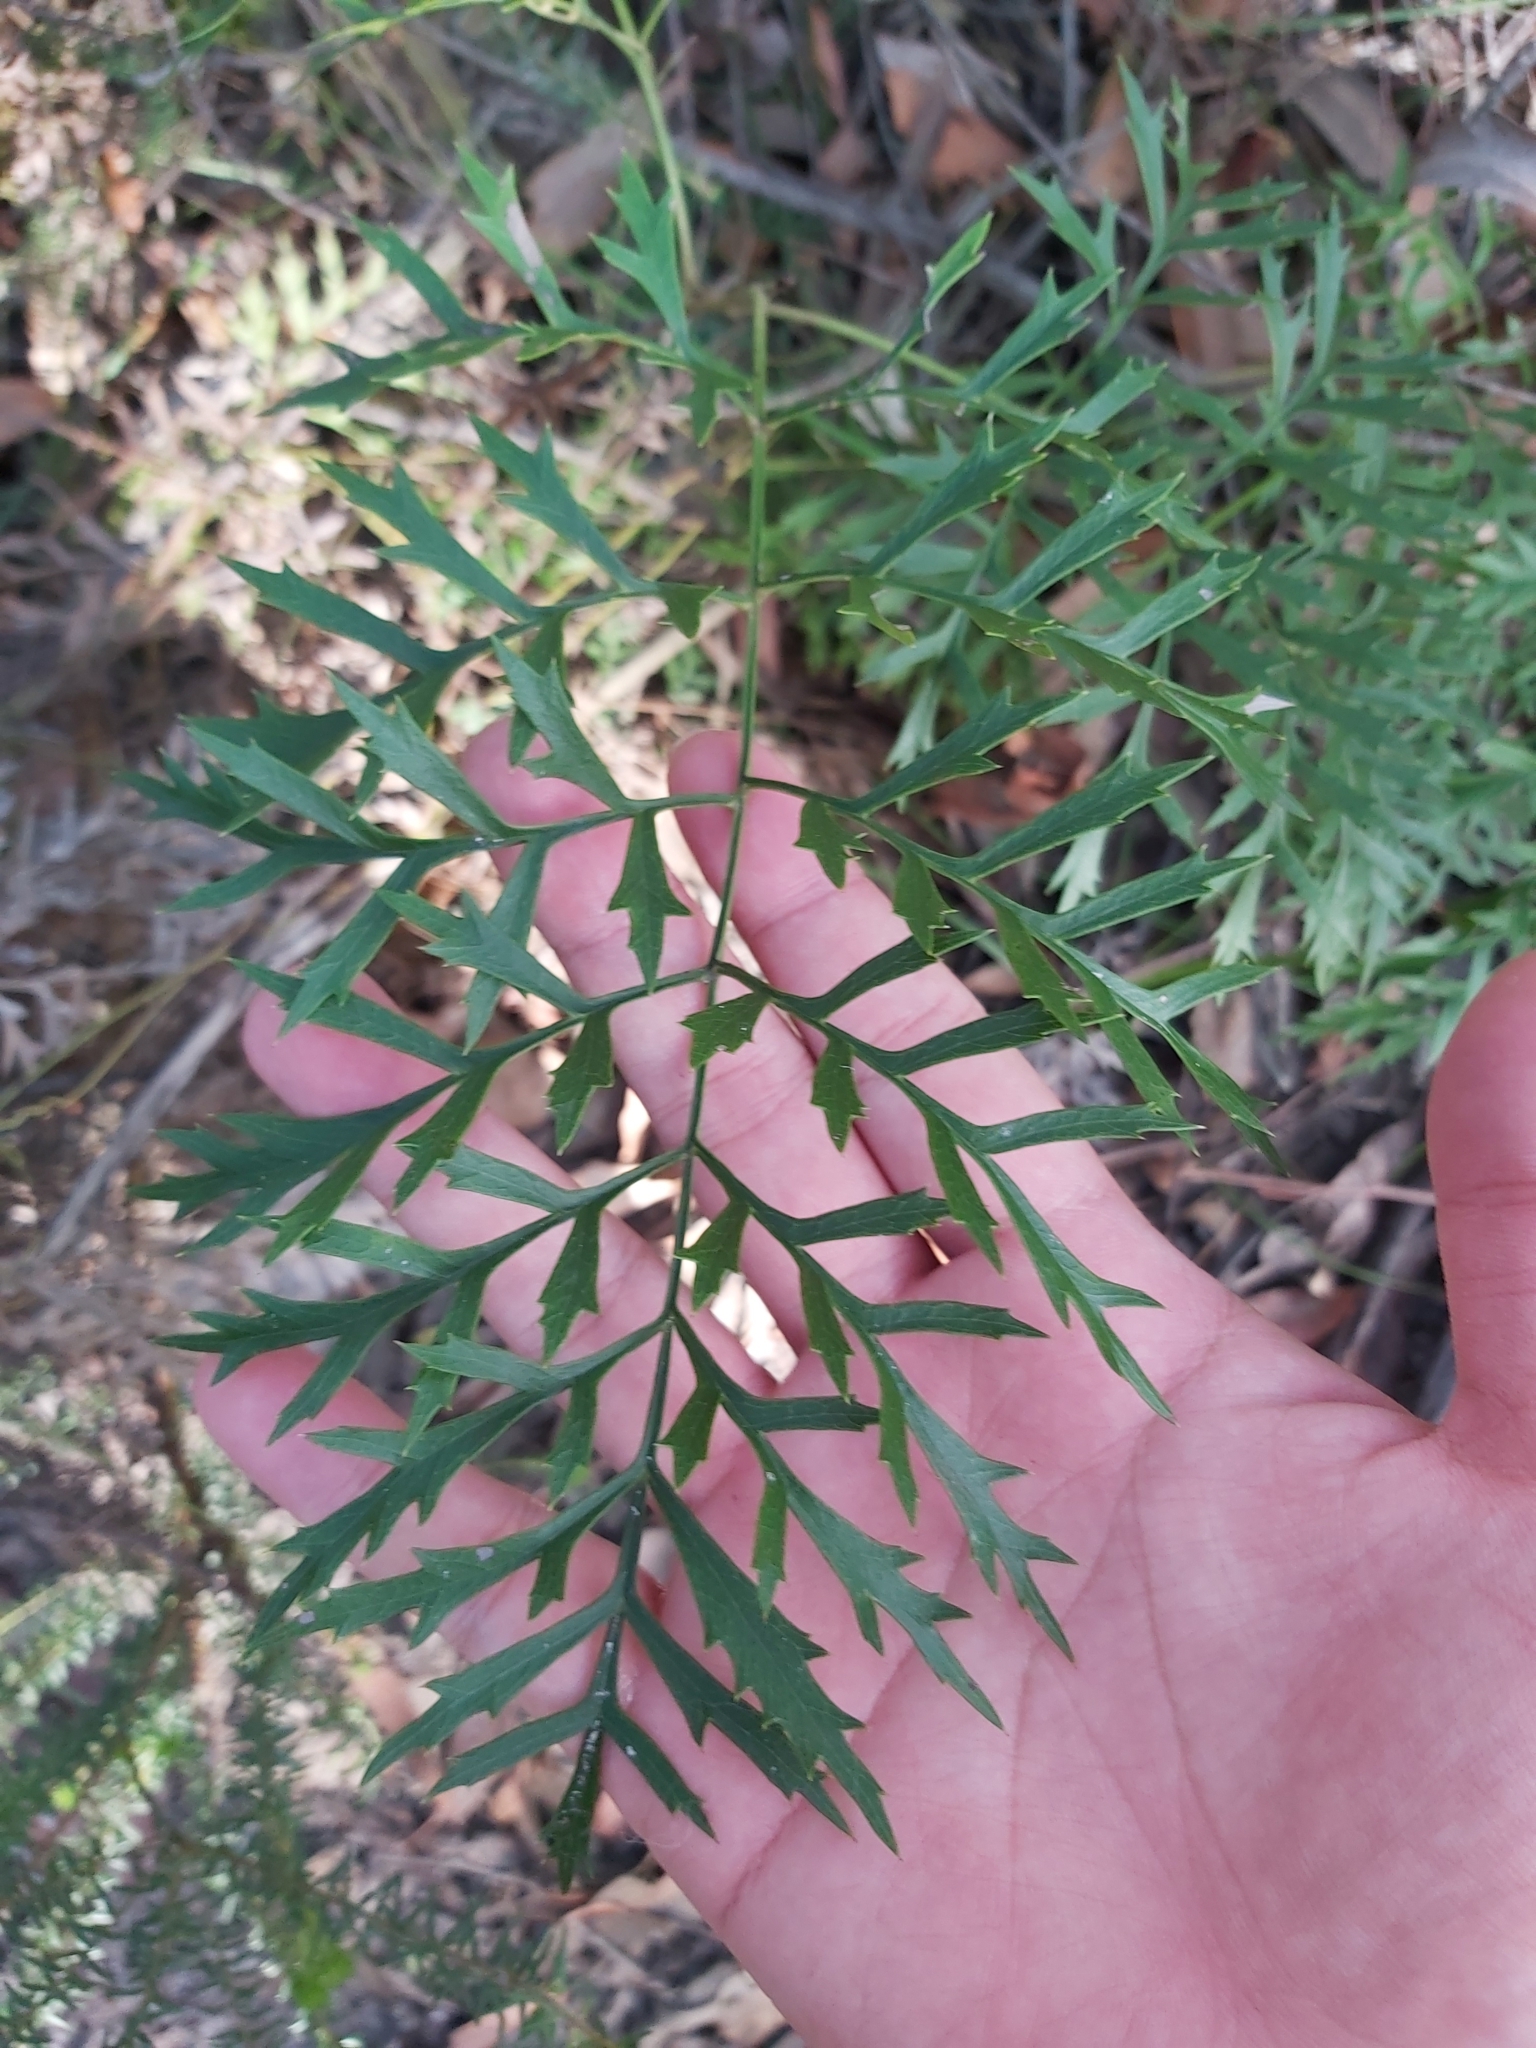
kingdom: Plantae
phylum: Tracheophyta
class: Magnoliopsida
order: Proteales
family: Proteaceae
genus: Lomatia
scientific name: Lomatia silaifolia
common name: Crinklebush
